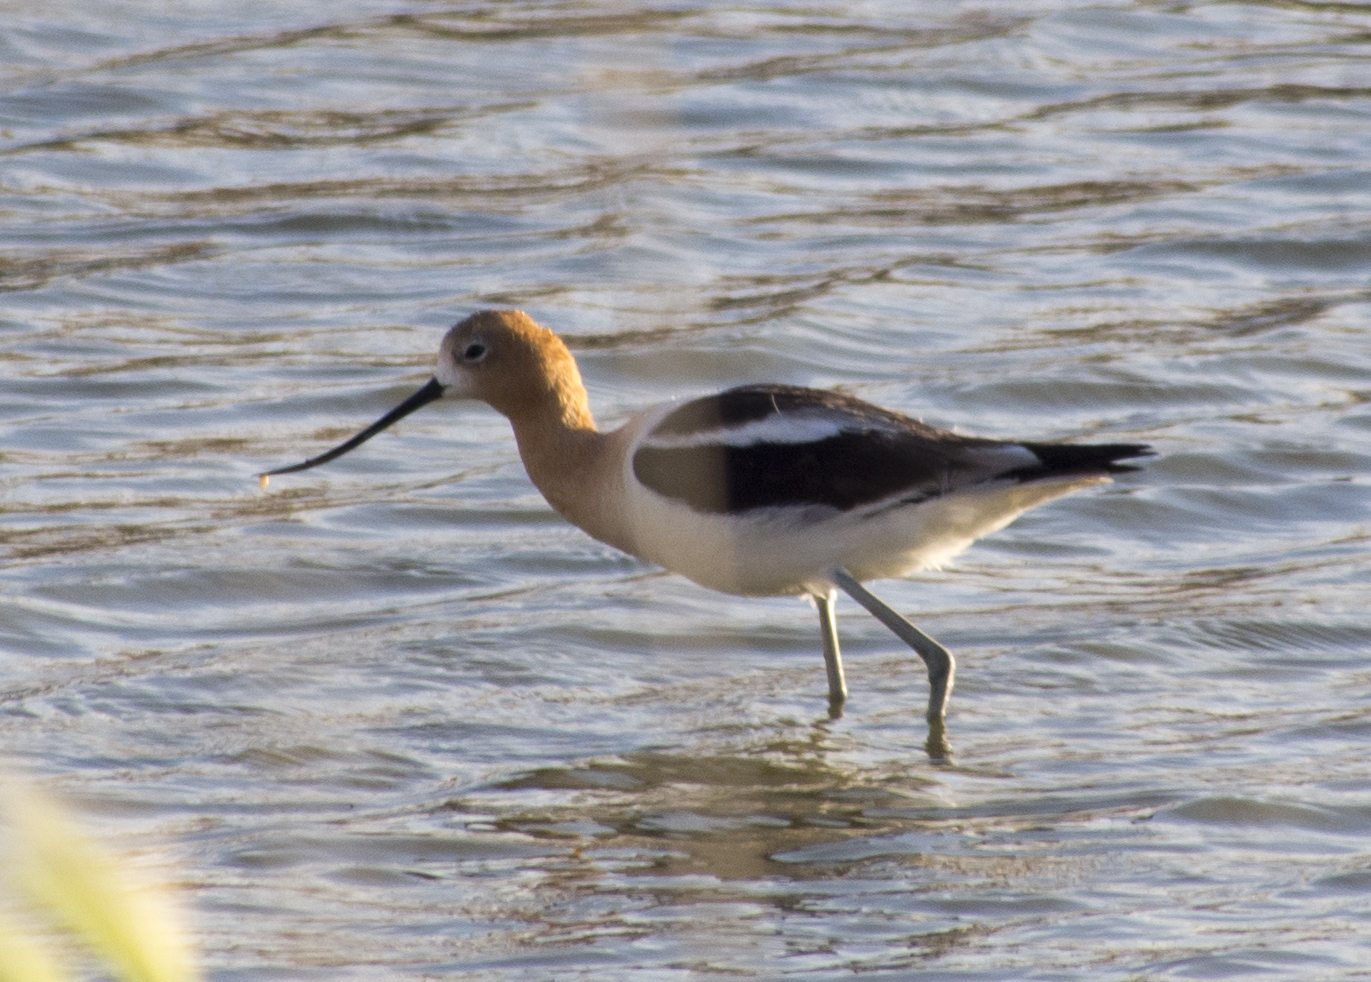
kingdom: Animalia
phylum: Chordata
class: Aves
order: Charadriiformes
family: Recurvirostridae
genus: Recurvirostra
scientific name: Recurvirostra americana
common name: American avocet
